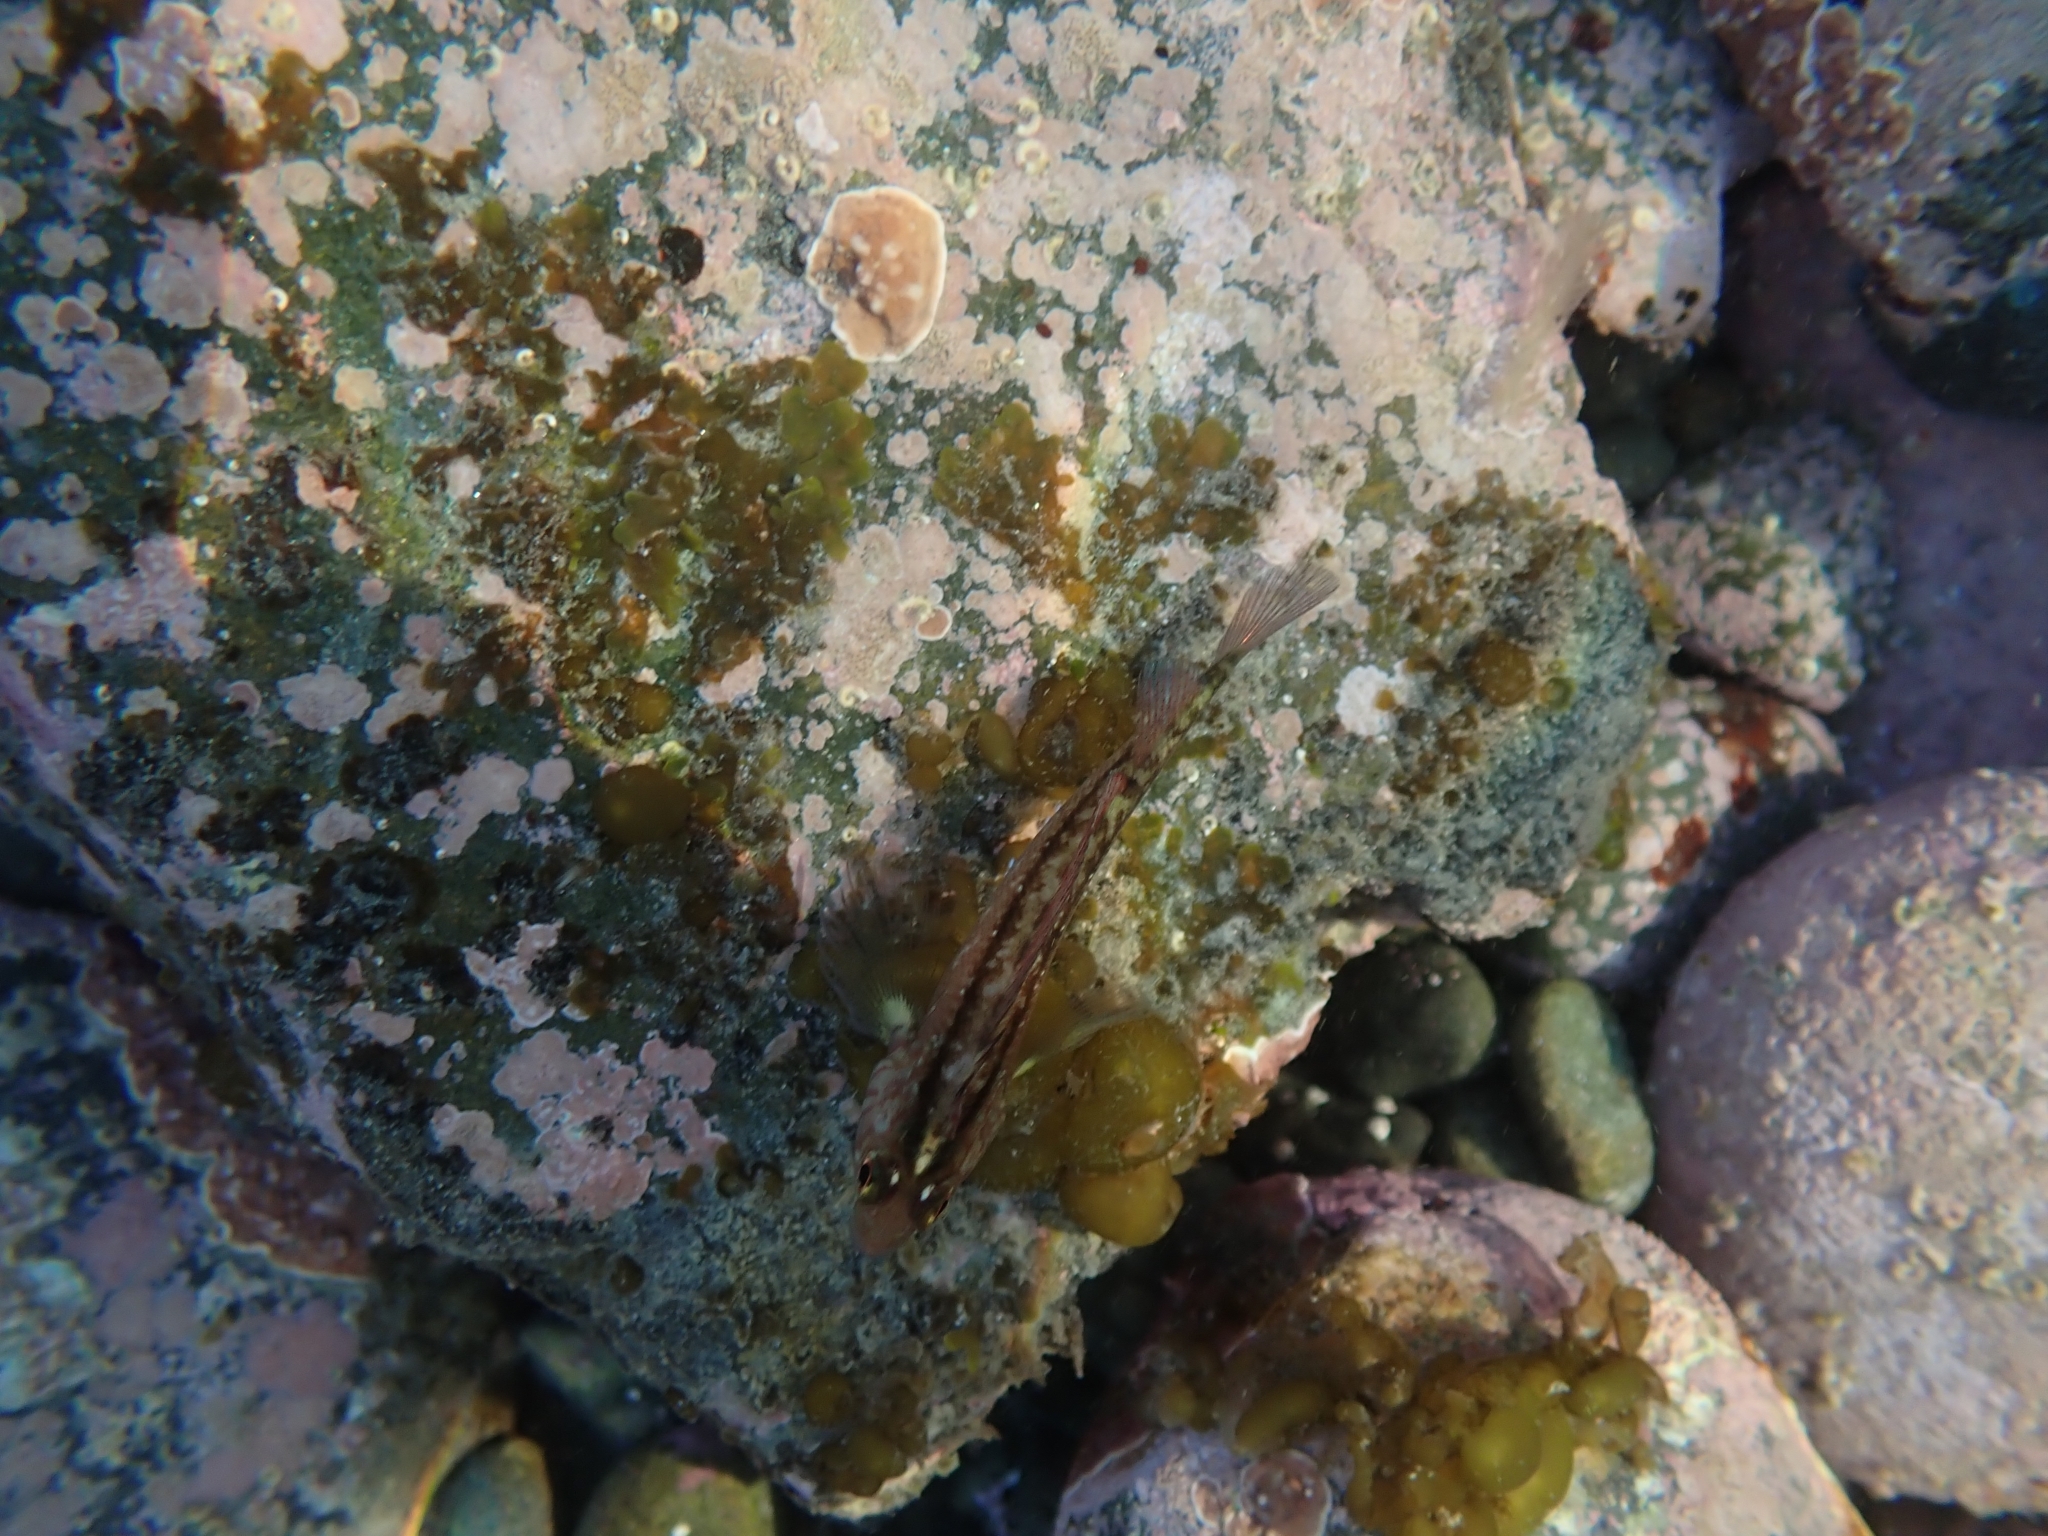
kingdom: Animalia
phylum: Chordata
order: Perciformes
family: Tripterygiidae
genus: Forsterygion
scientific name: Forsterygion lapillum
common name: Common triplefin
